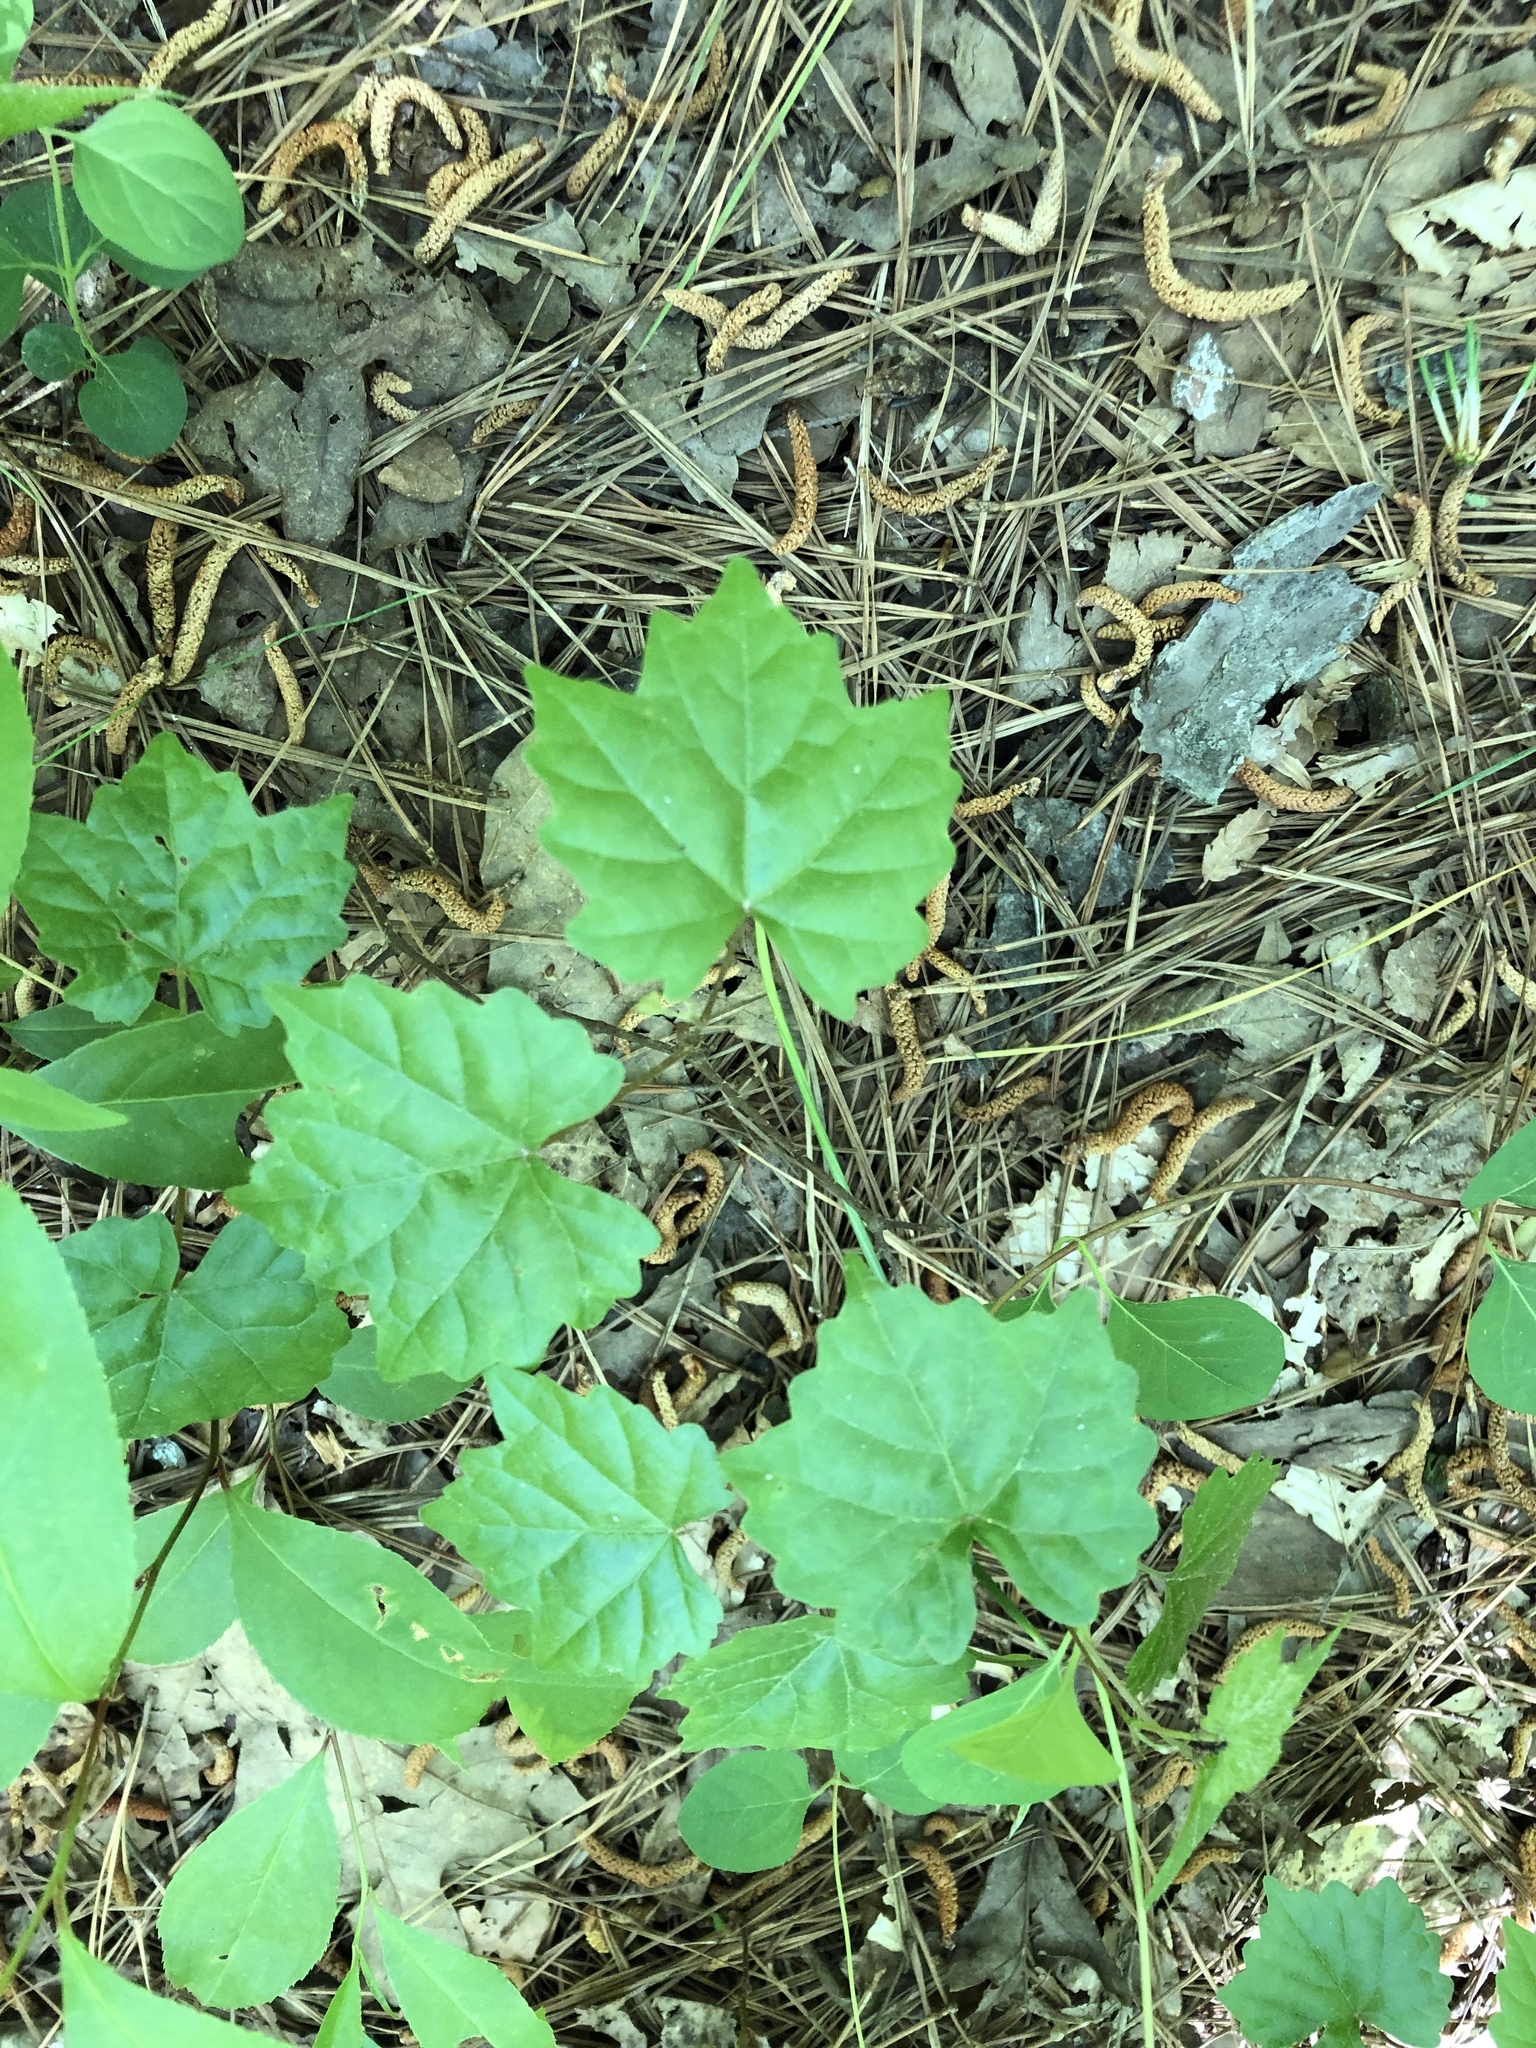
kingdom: Plantae
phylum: Tracheophyta
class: Magnoliopsida
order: Vitales
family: Vitaceae
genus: Vitis
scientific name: Vitis rotundifolia
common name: Muscadine grape
